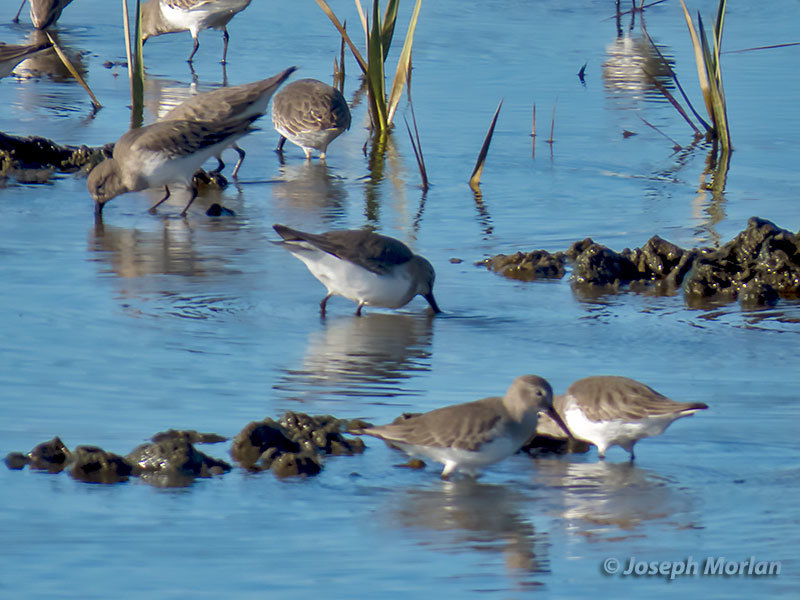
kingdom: Animalia
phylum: Chordata
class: Aves
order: Charadriiformes
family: Scolopacidae
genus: Calidris
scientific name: Calidris alpina
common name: Dunlin
